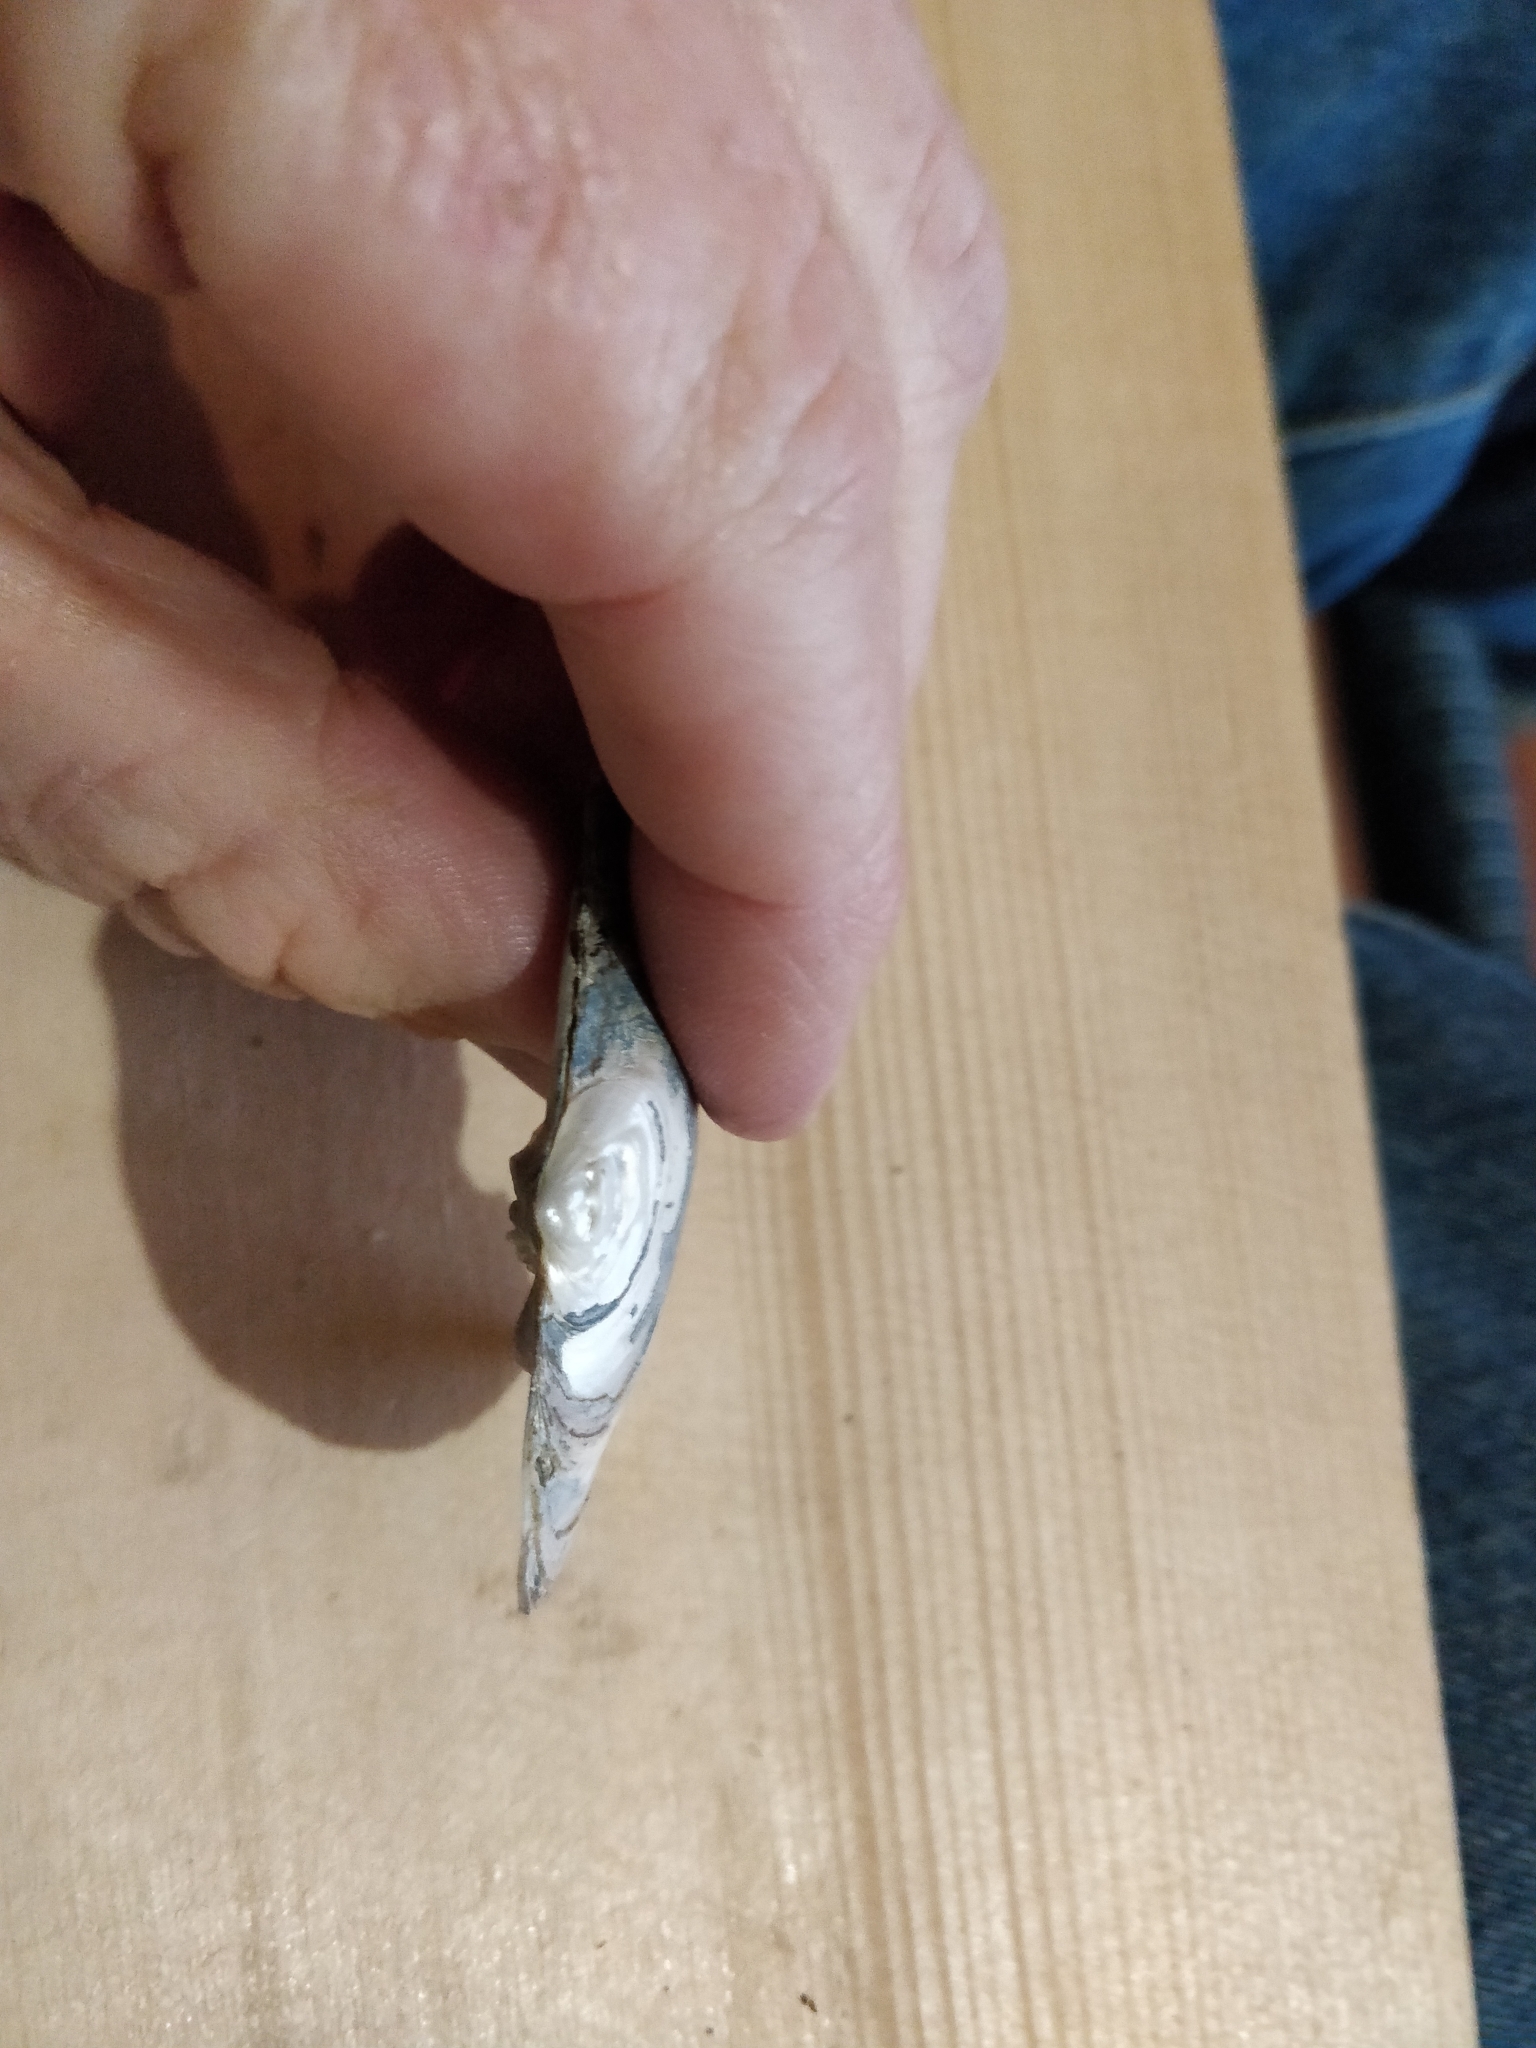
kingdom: Animalia
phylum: Mollusca
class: Bivalvia
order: Unionida
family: Unionidae
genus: Lasmigona
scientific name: Lasmigona complanata
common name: White heelsplitter
